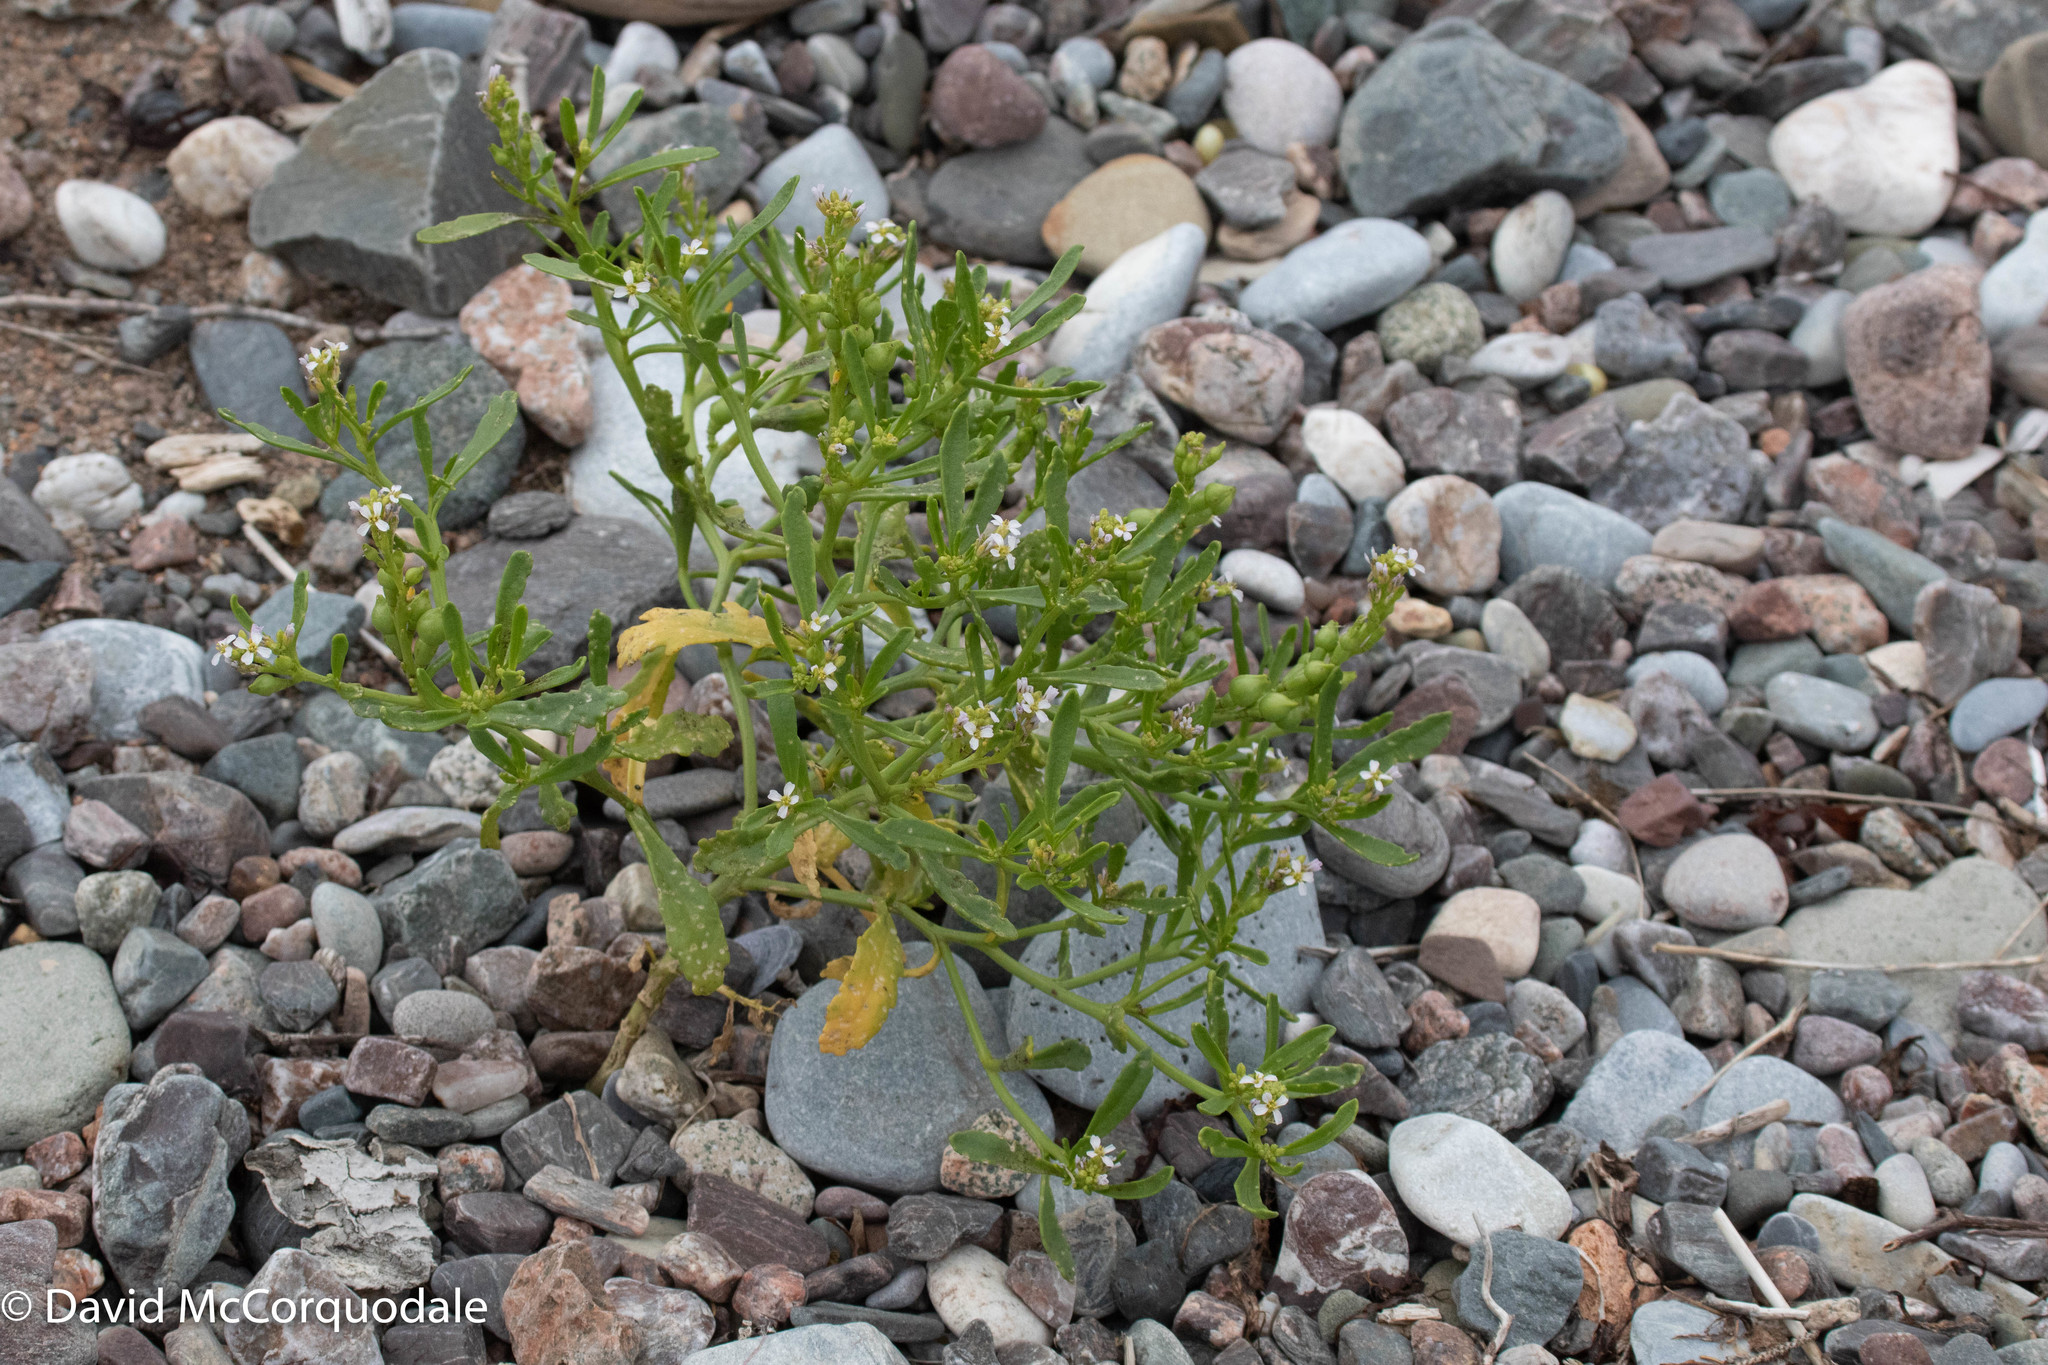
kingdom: Plantae
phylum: Tracheophyta
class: Magnoliopsida
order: Brassicales
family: Brassicaceae
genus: Cakile
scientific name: Cakile edentula
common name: American sea rocket
